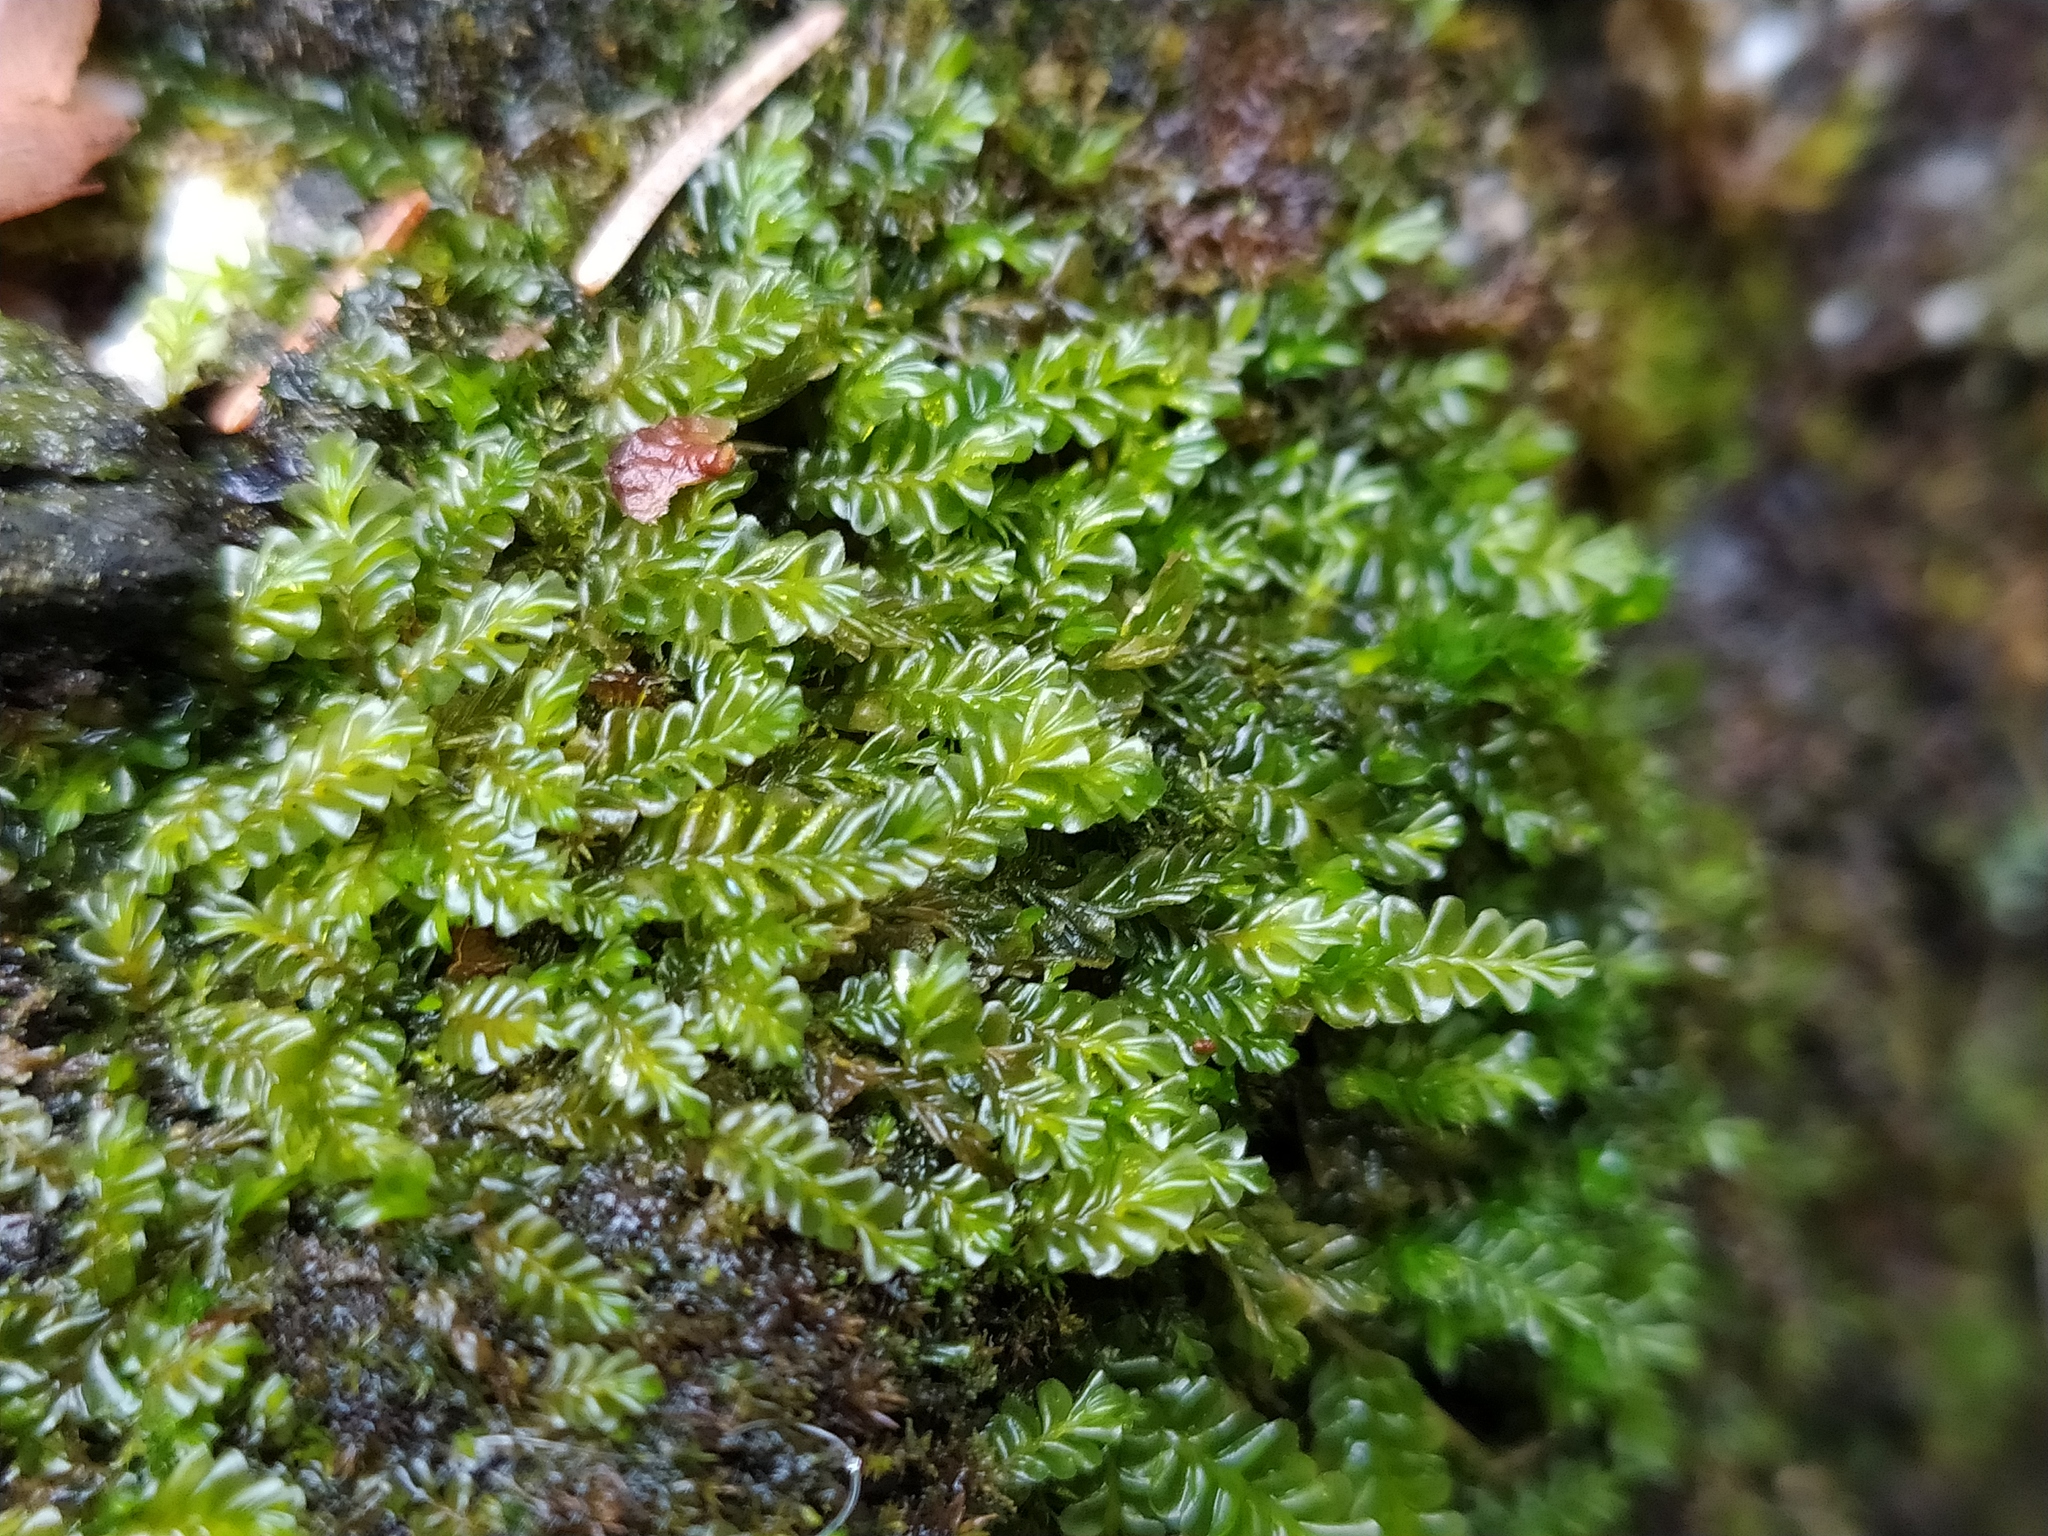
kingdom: Plantae
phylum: Marchantiophyta
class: Jungermanniopsida
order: Jungermanniales
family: Plagiochilaceae
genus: Plagiochila
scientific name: Plagiochila porelloides
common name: Lesser featherwort
